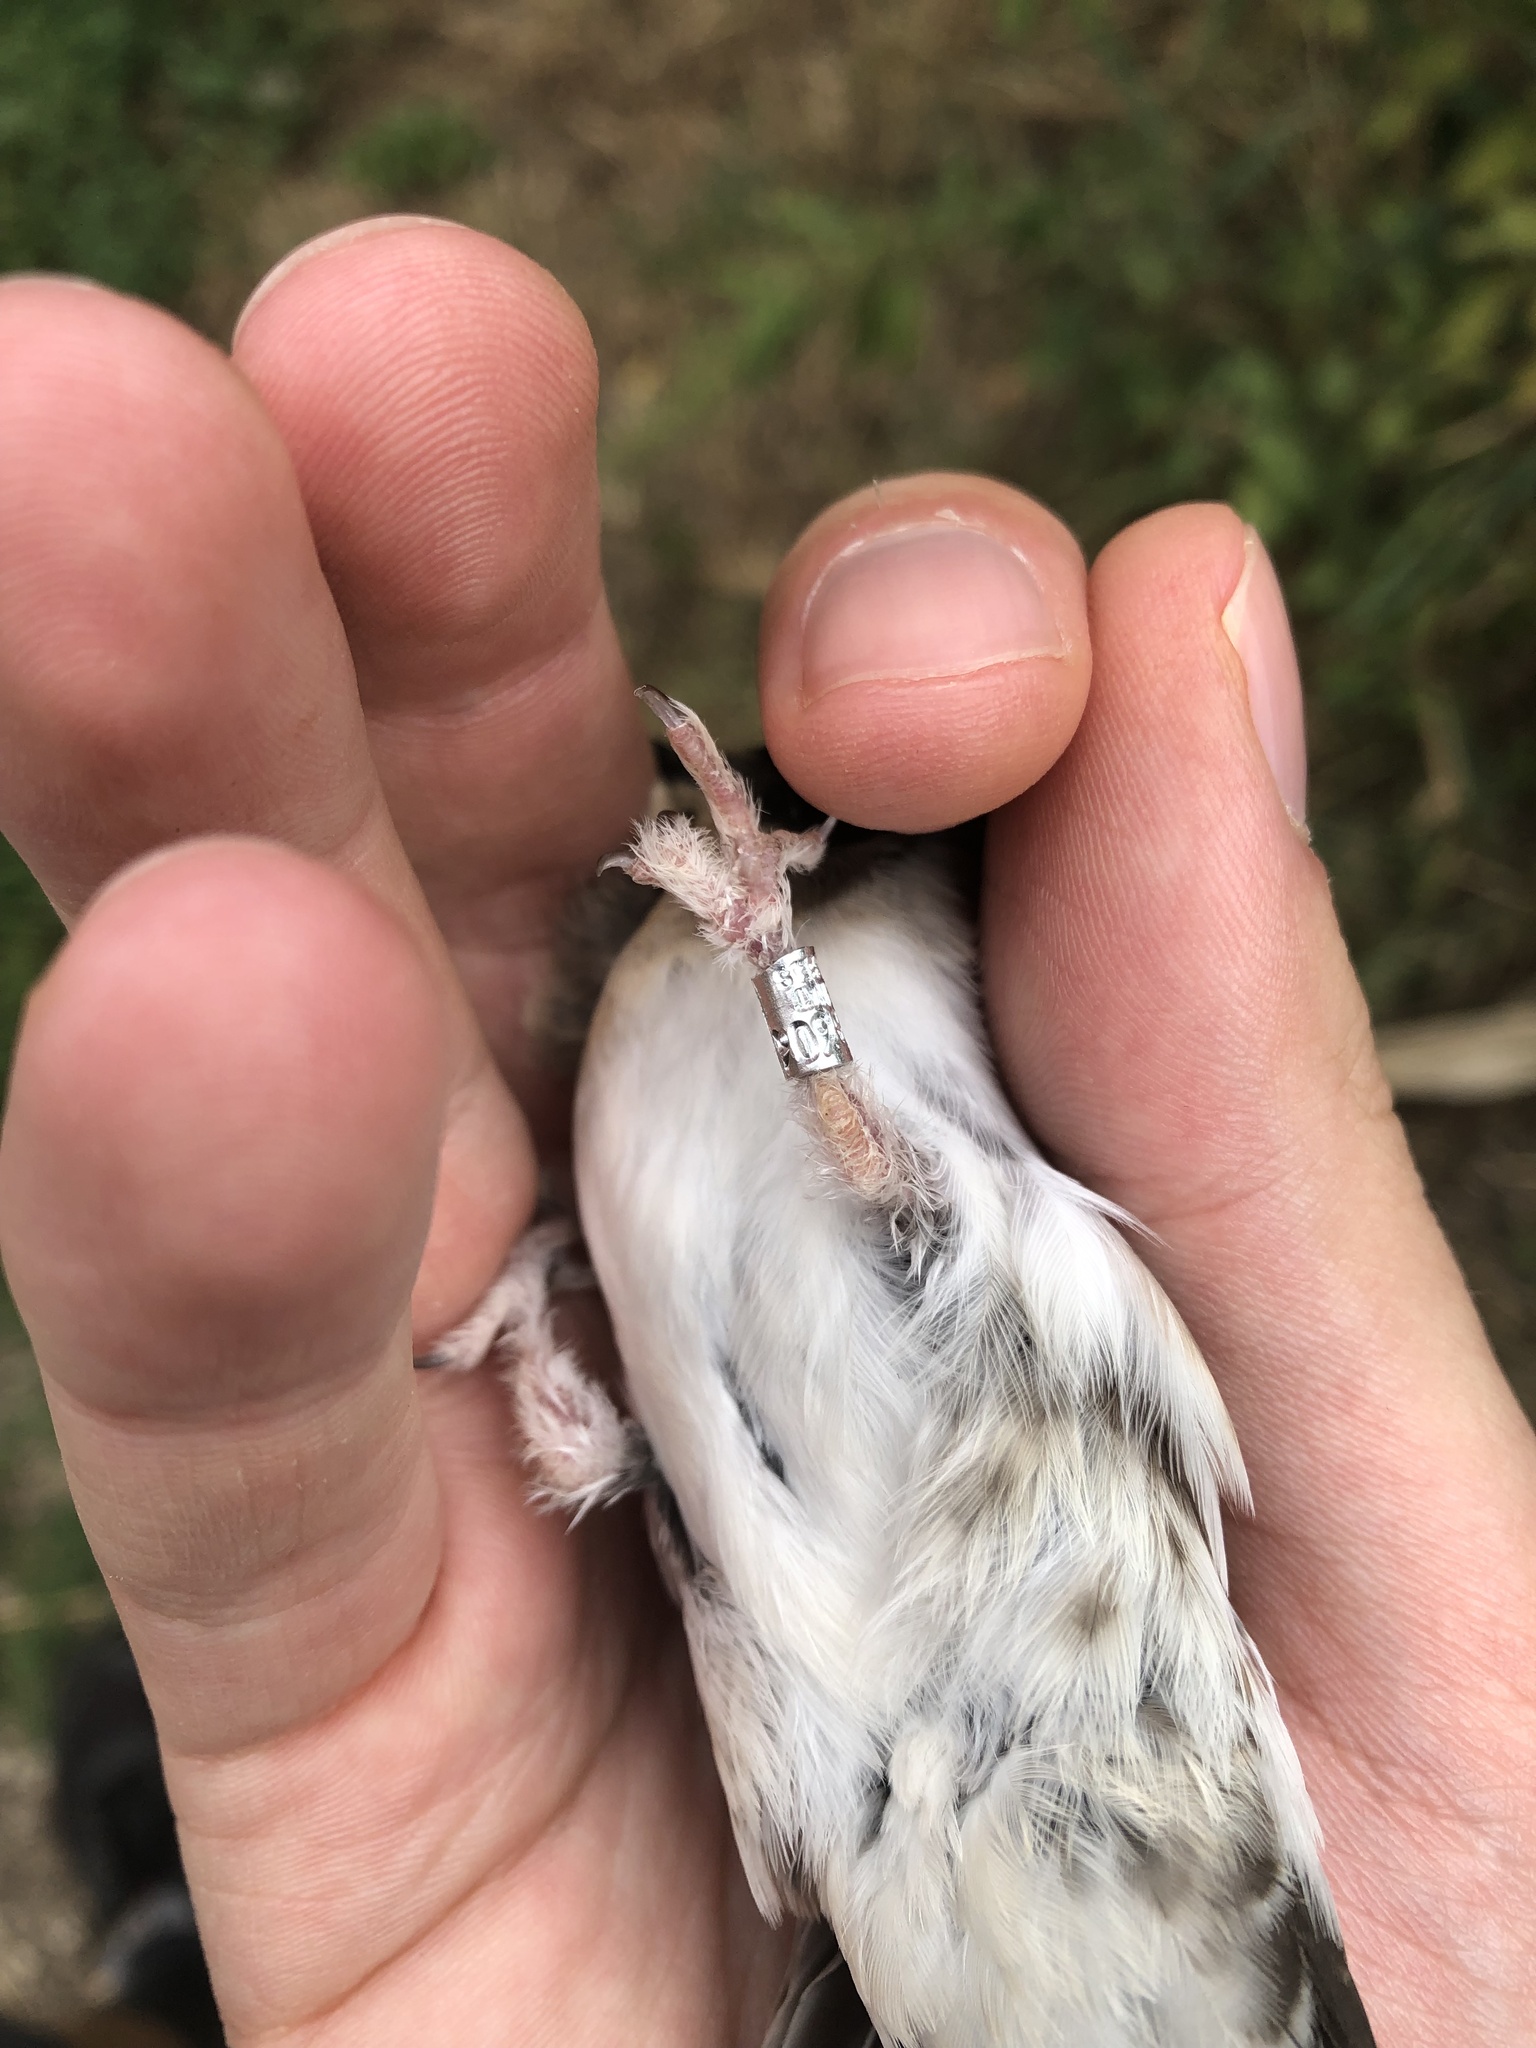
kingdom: Animalia
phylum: Chordata
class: Aves
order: Passeriformes
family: Hirundinidae
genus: Delichon
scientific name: Delichon urbicum
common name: Common house martin
